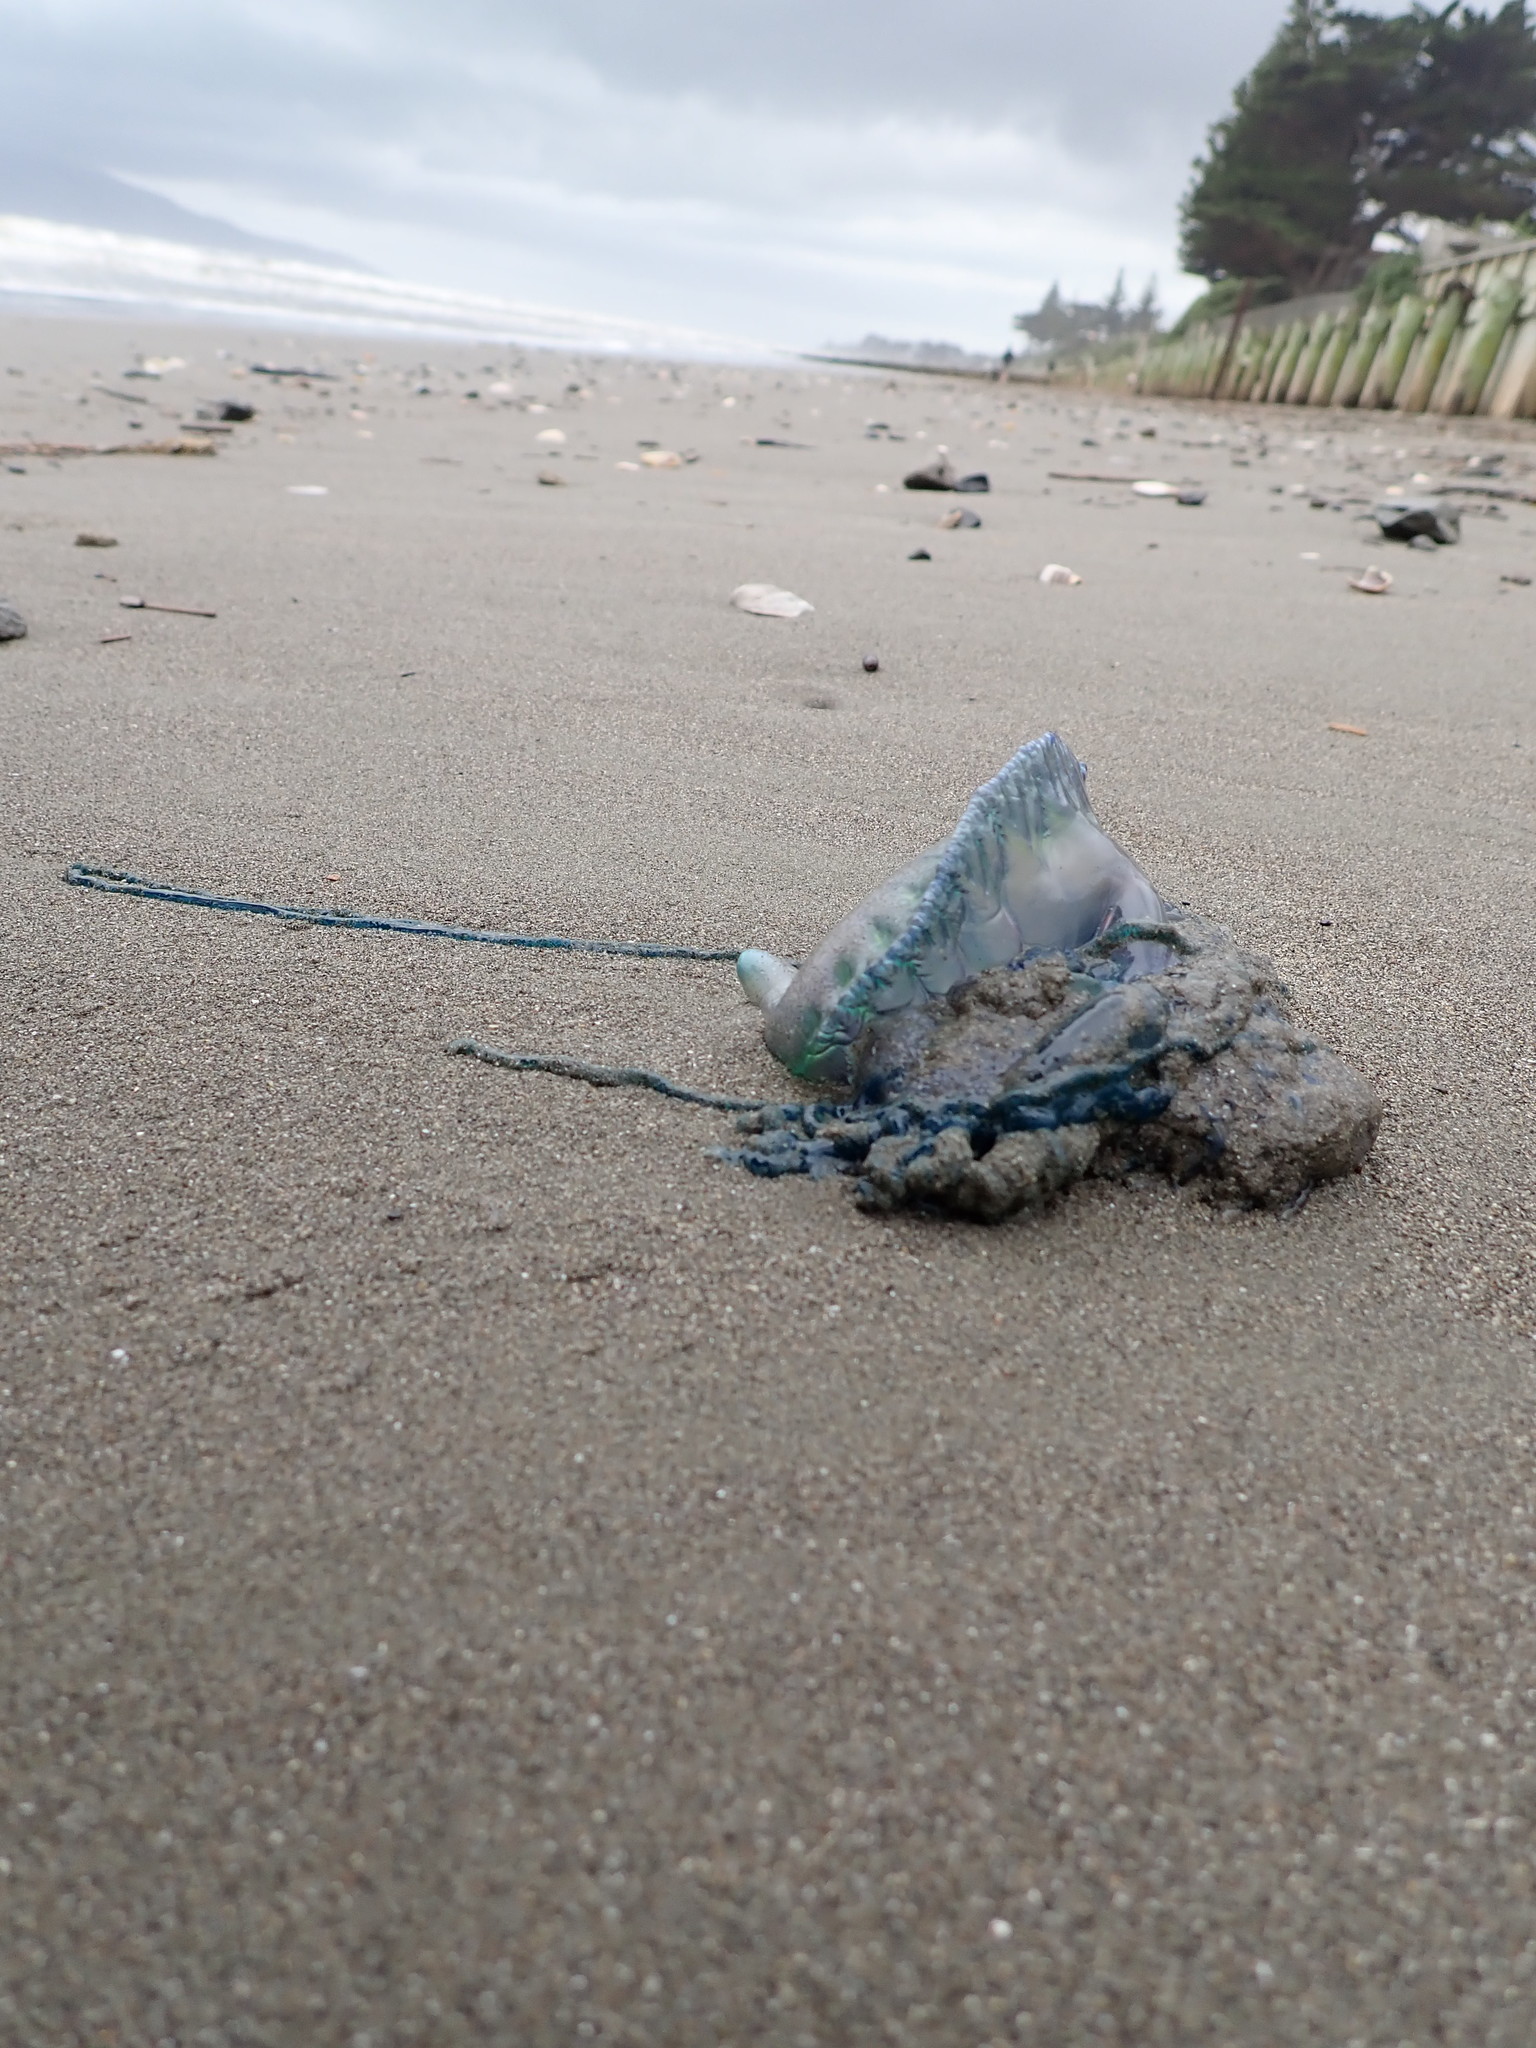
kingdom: Animalia
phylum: Cnidaria
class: Hydrozoa
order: Siphonophorae
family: Physaliidae
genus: Physalia
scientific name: Physalia physalis
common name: Portuguese man-of-war
